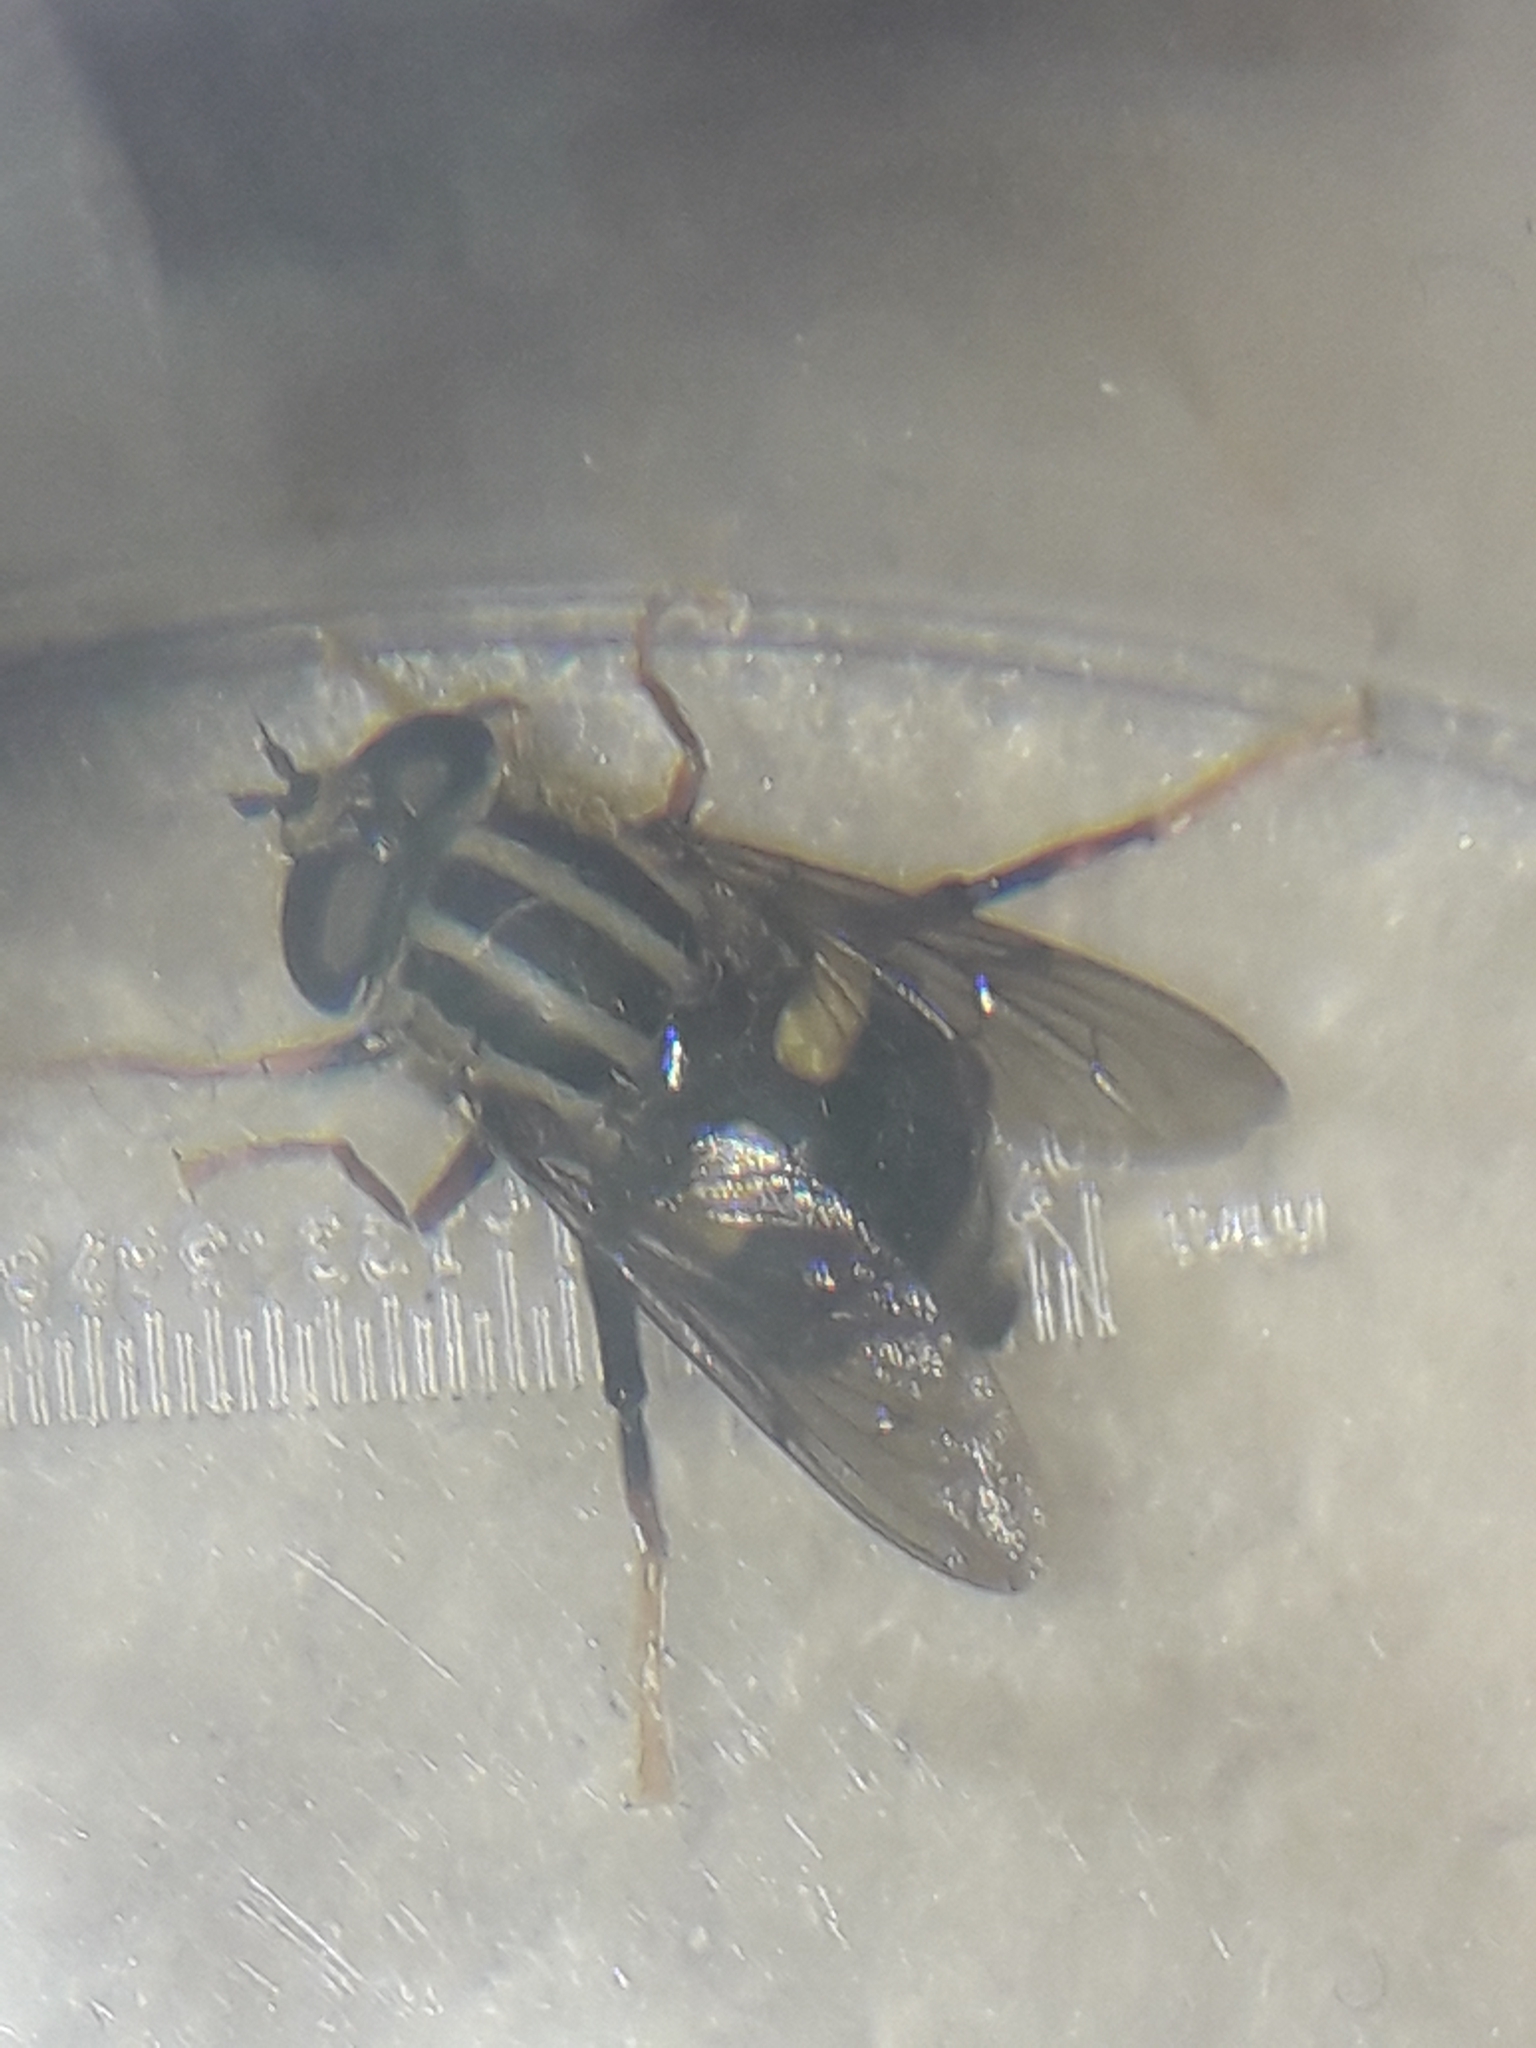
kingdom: Animalia
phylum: Arthropoda
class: Insecta
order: Diptera
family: Syrphidae
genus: Helophilus
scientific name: Helophilus seelandicus
